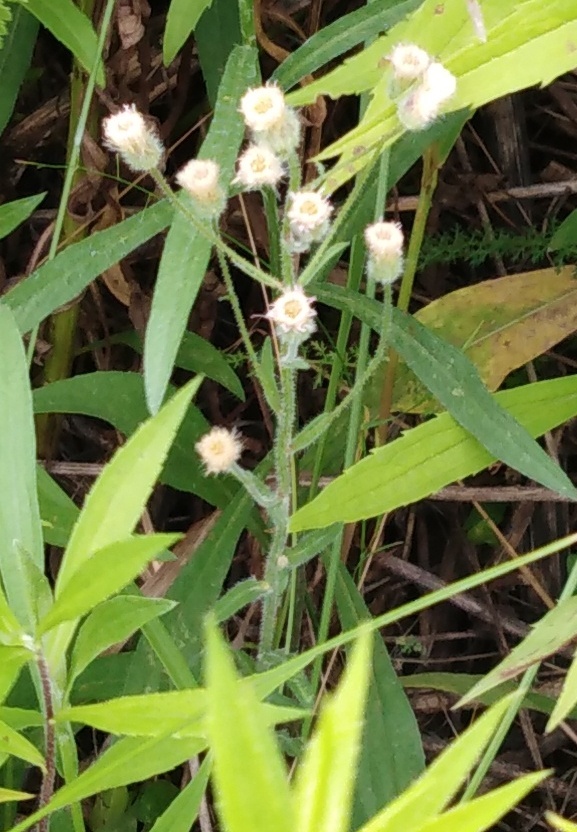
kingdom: Plantae
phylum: Tracheophyta
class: Magnoliopsida
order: Asterales
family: Asteraceae
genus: Erigeron
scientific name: Erigeron acris
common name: Blue fleabane
